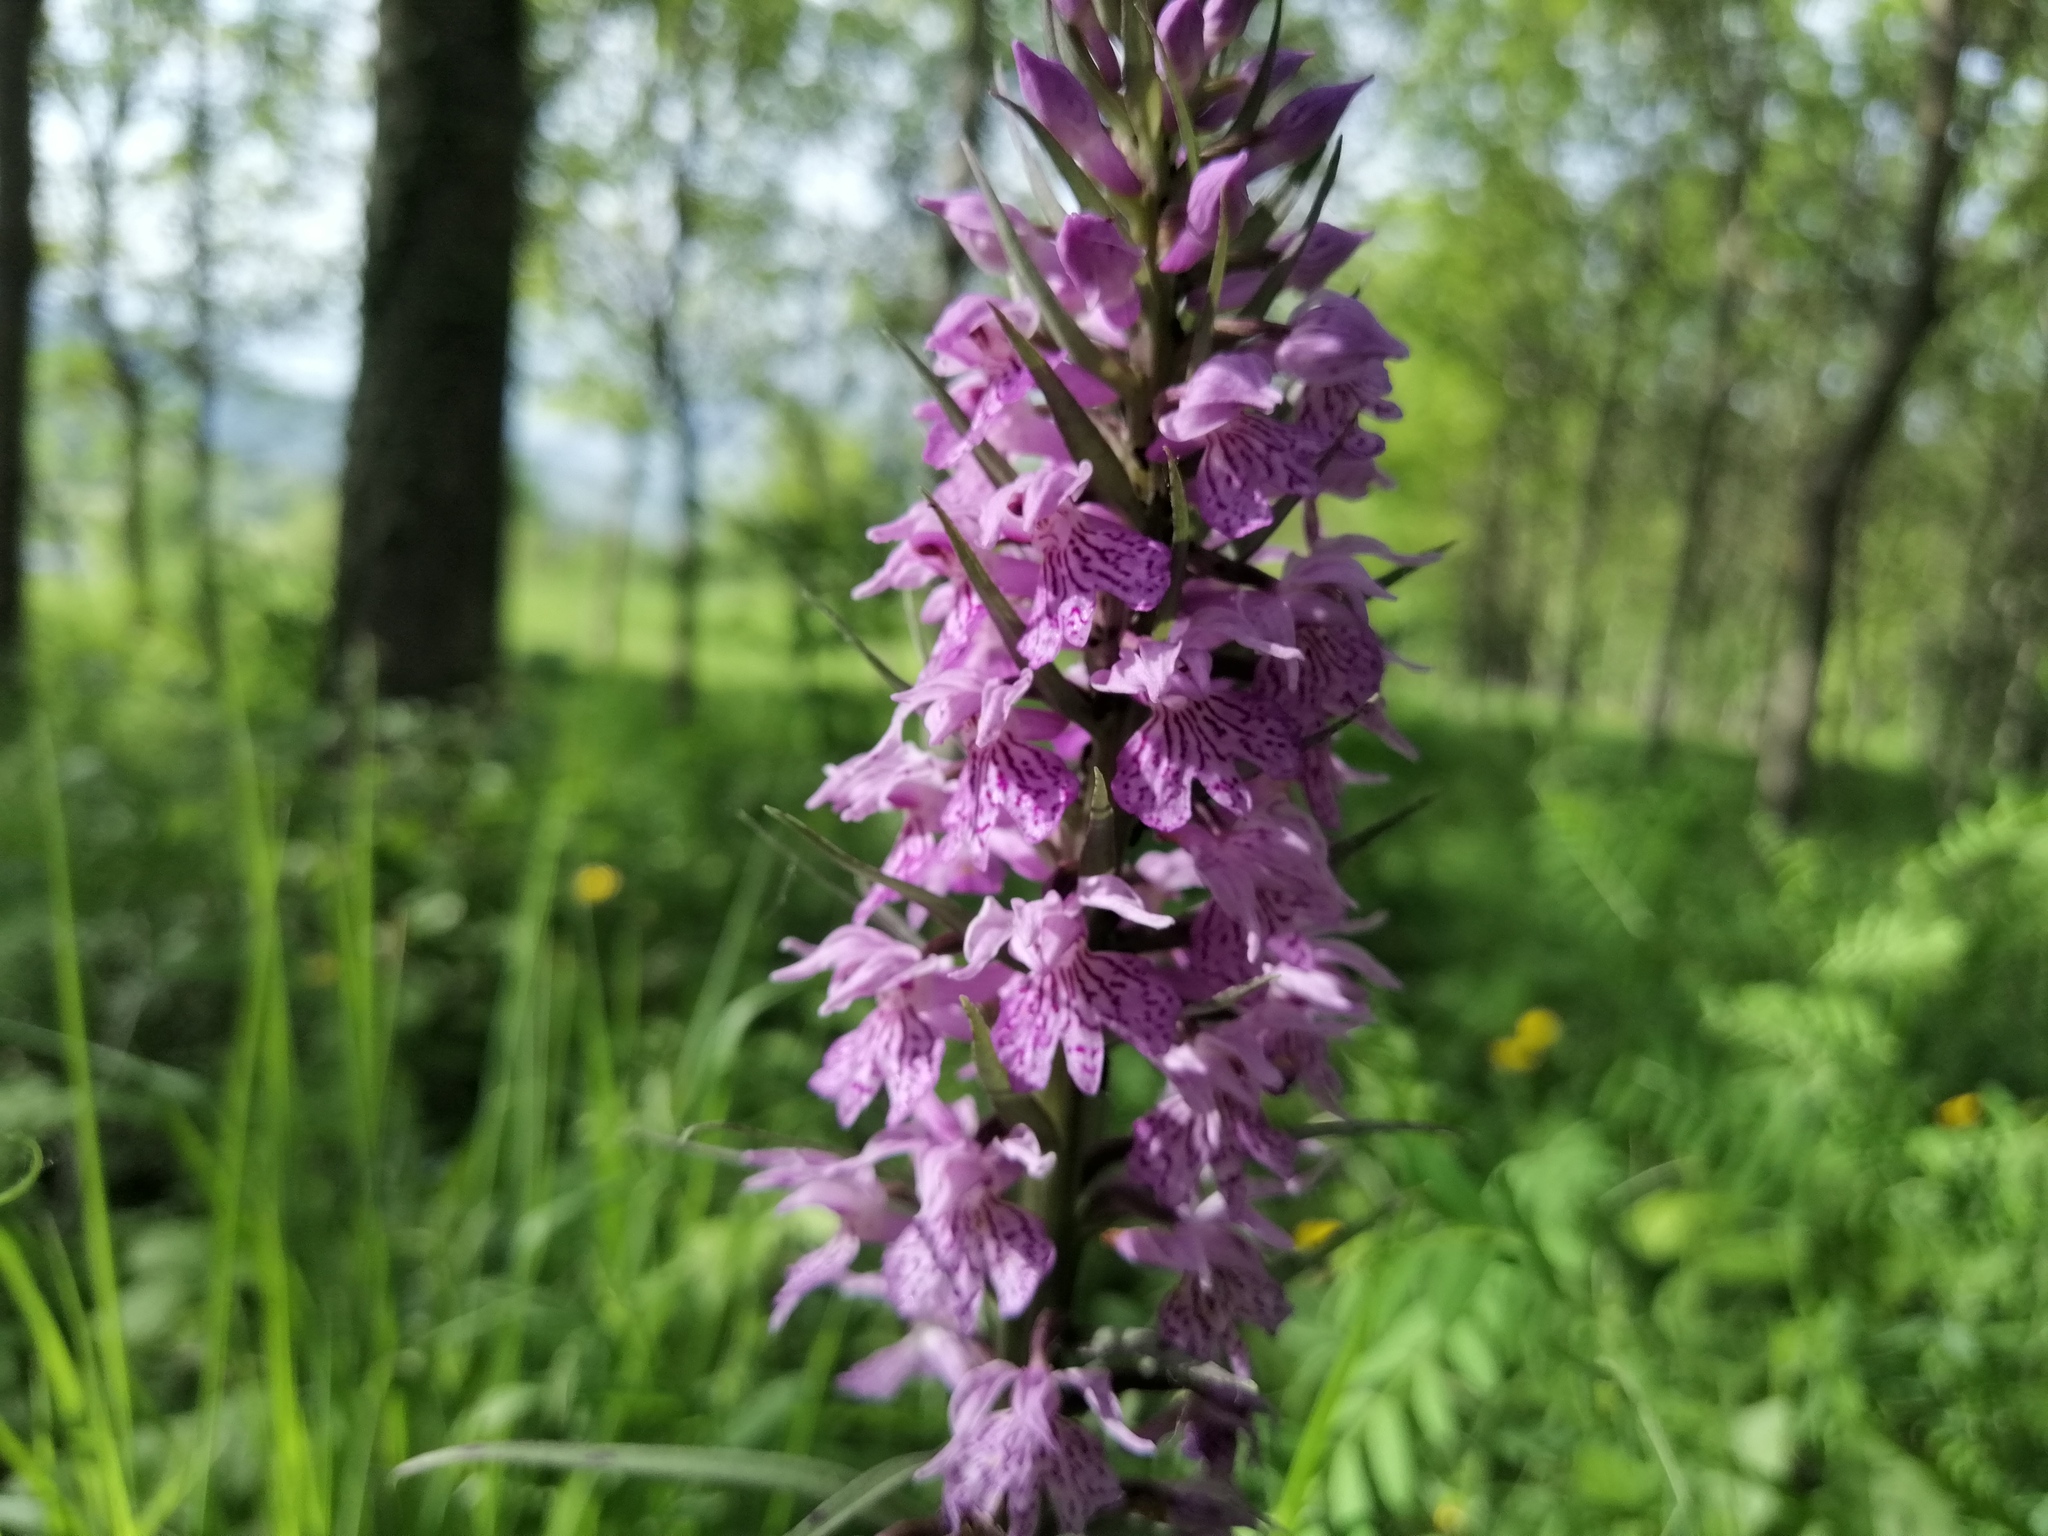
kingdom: Plantae
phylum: Tracheophyta
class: Liliopsida
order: Asparagales
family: Orchidaceae
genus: Dactylorhiza
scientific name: Dactylorhiza maculata
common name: Heath spotted-orchid
